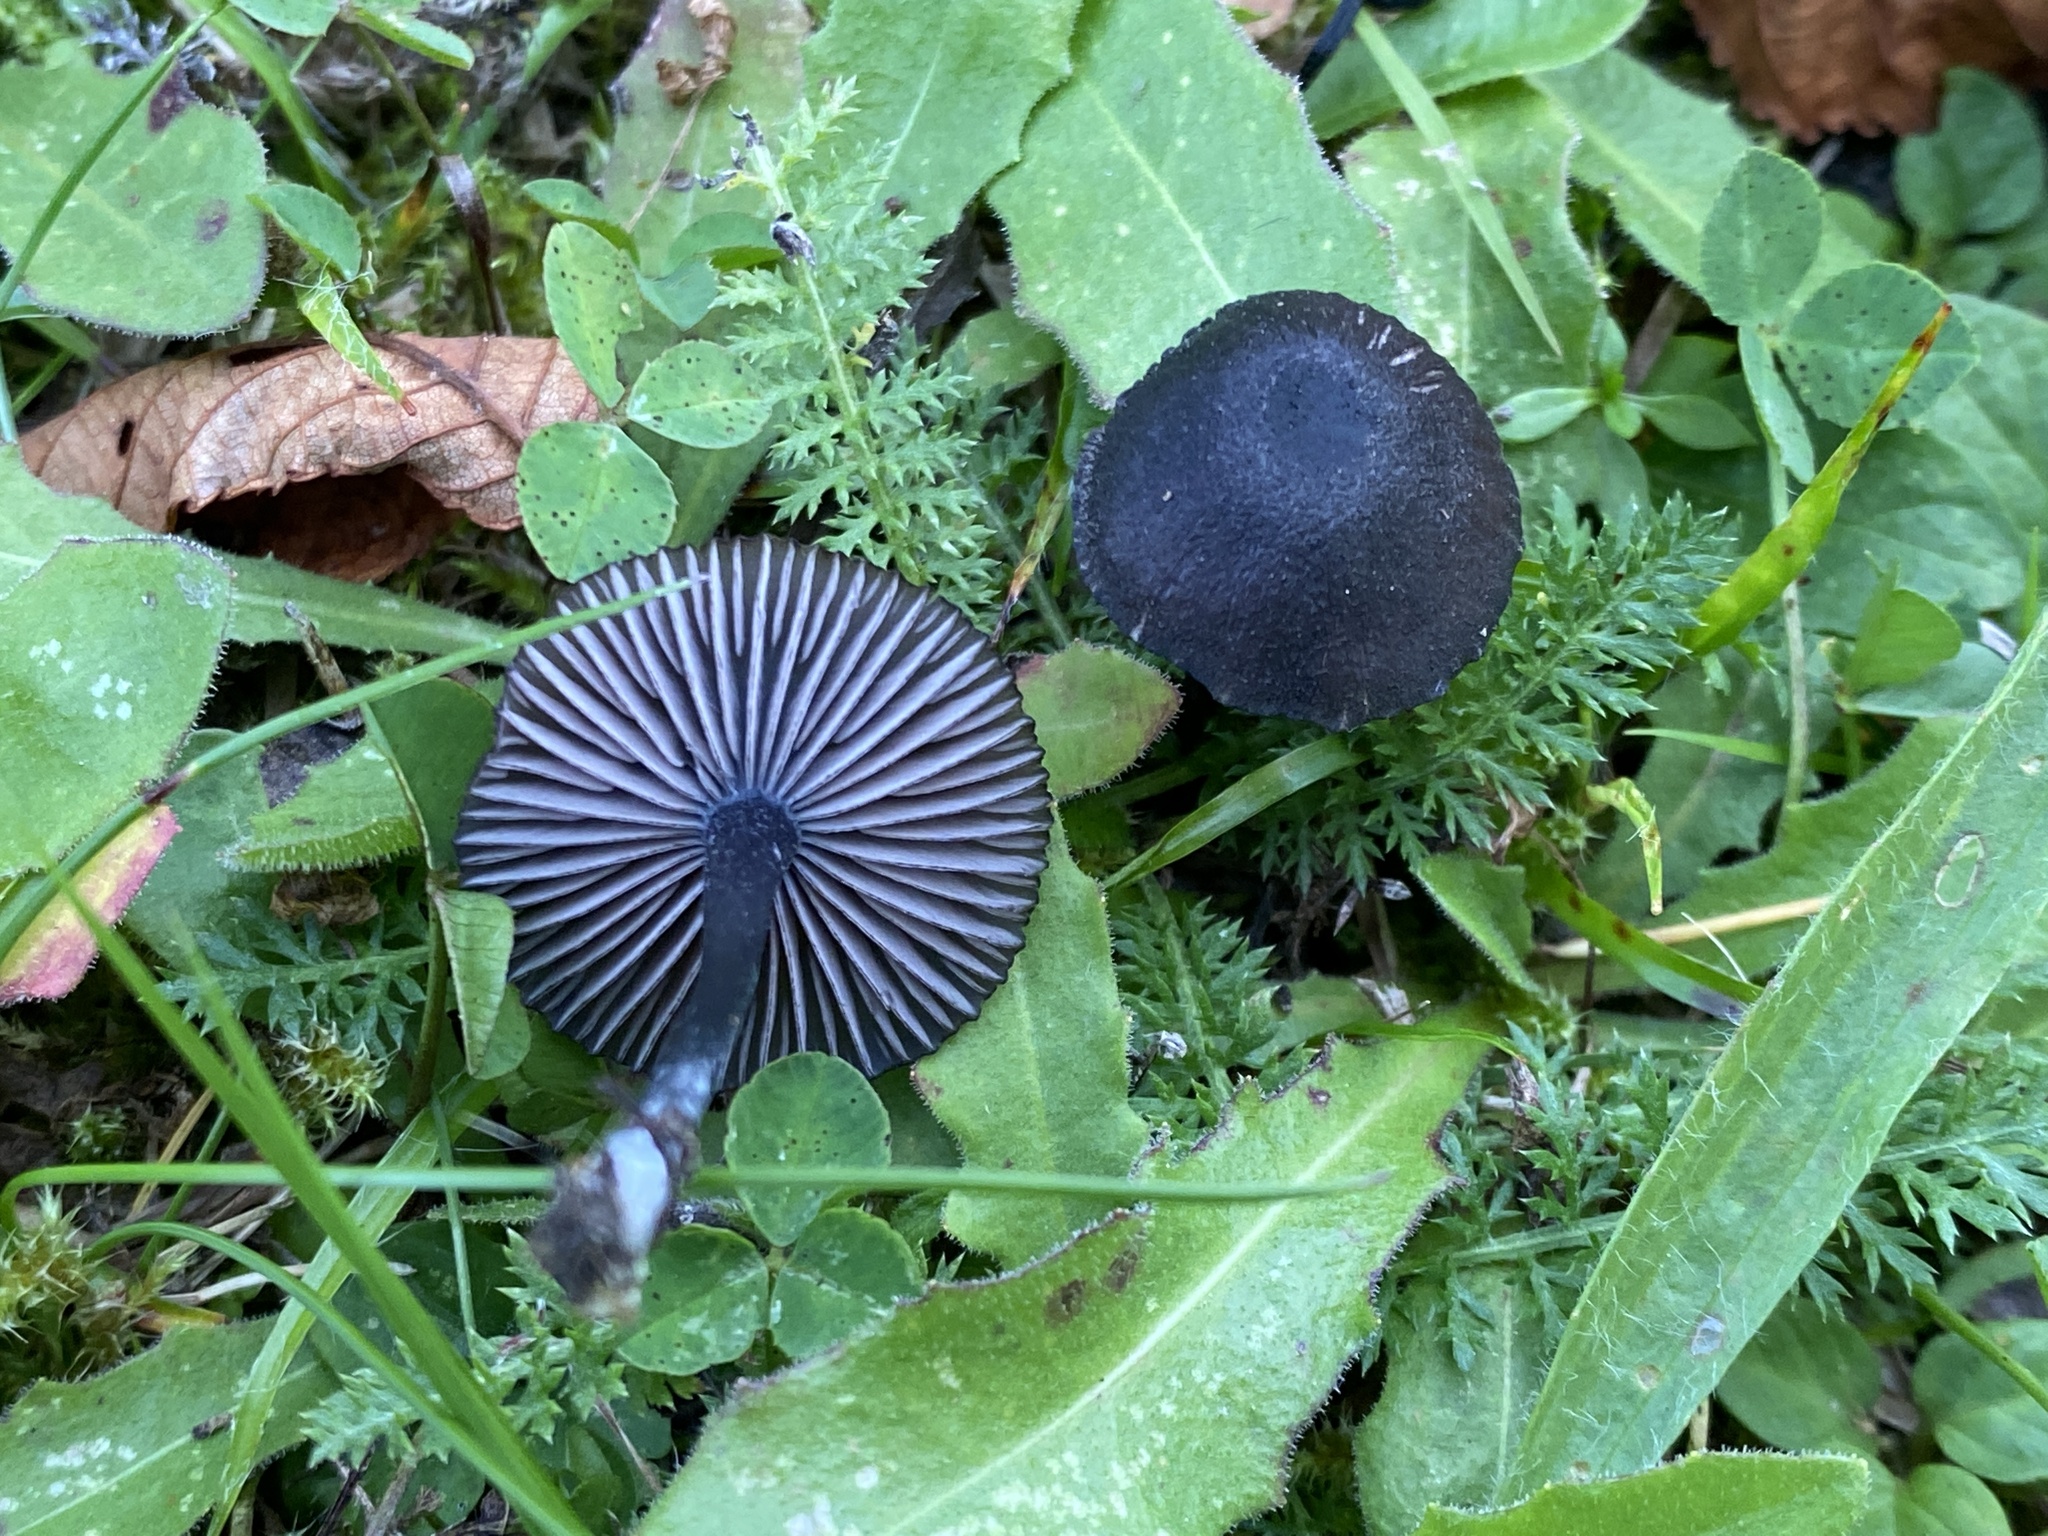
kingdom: Fungi
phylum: Basidiomycota
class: Agaricomycetes
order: Agaricales
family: Entolomataceae
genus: Entoloma
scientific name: Entoloma chalybeum
